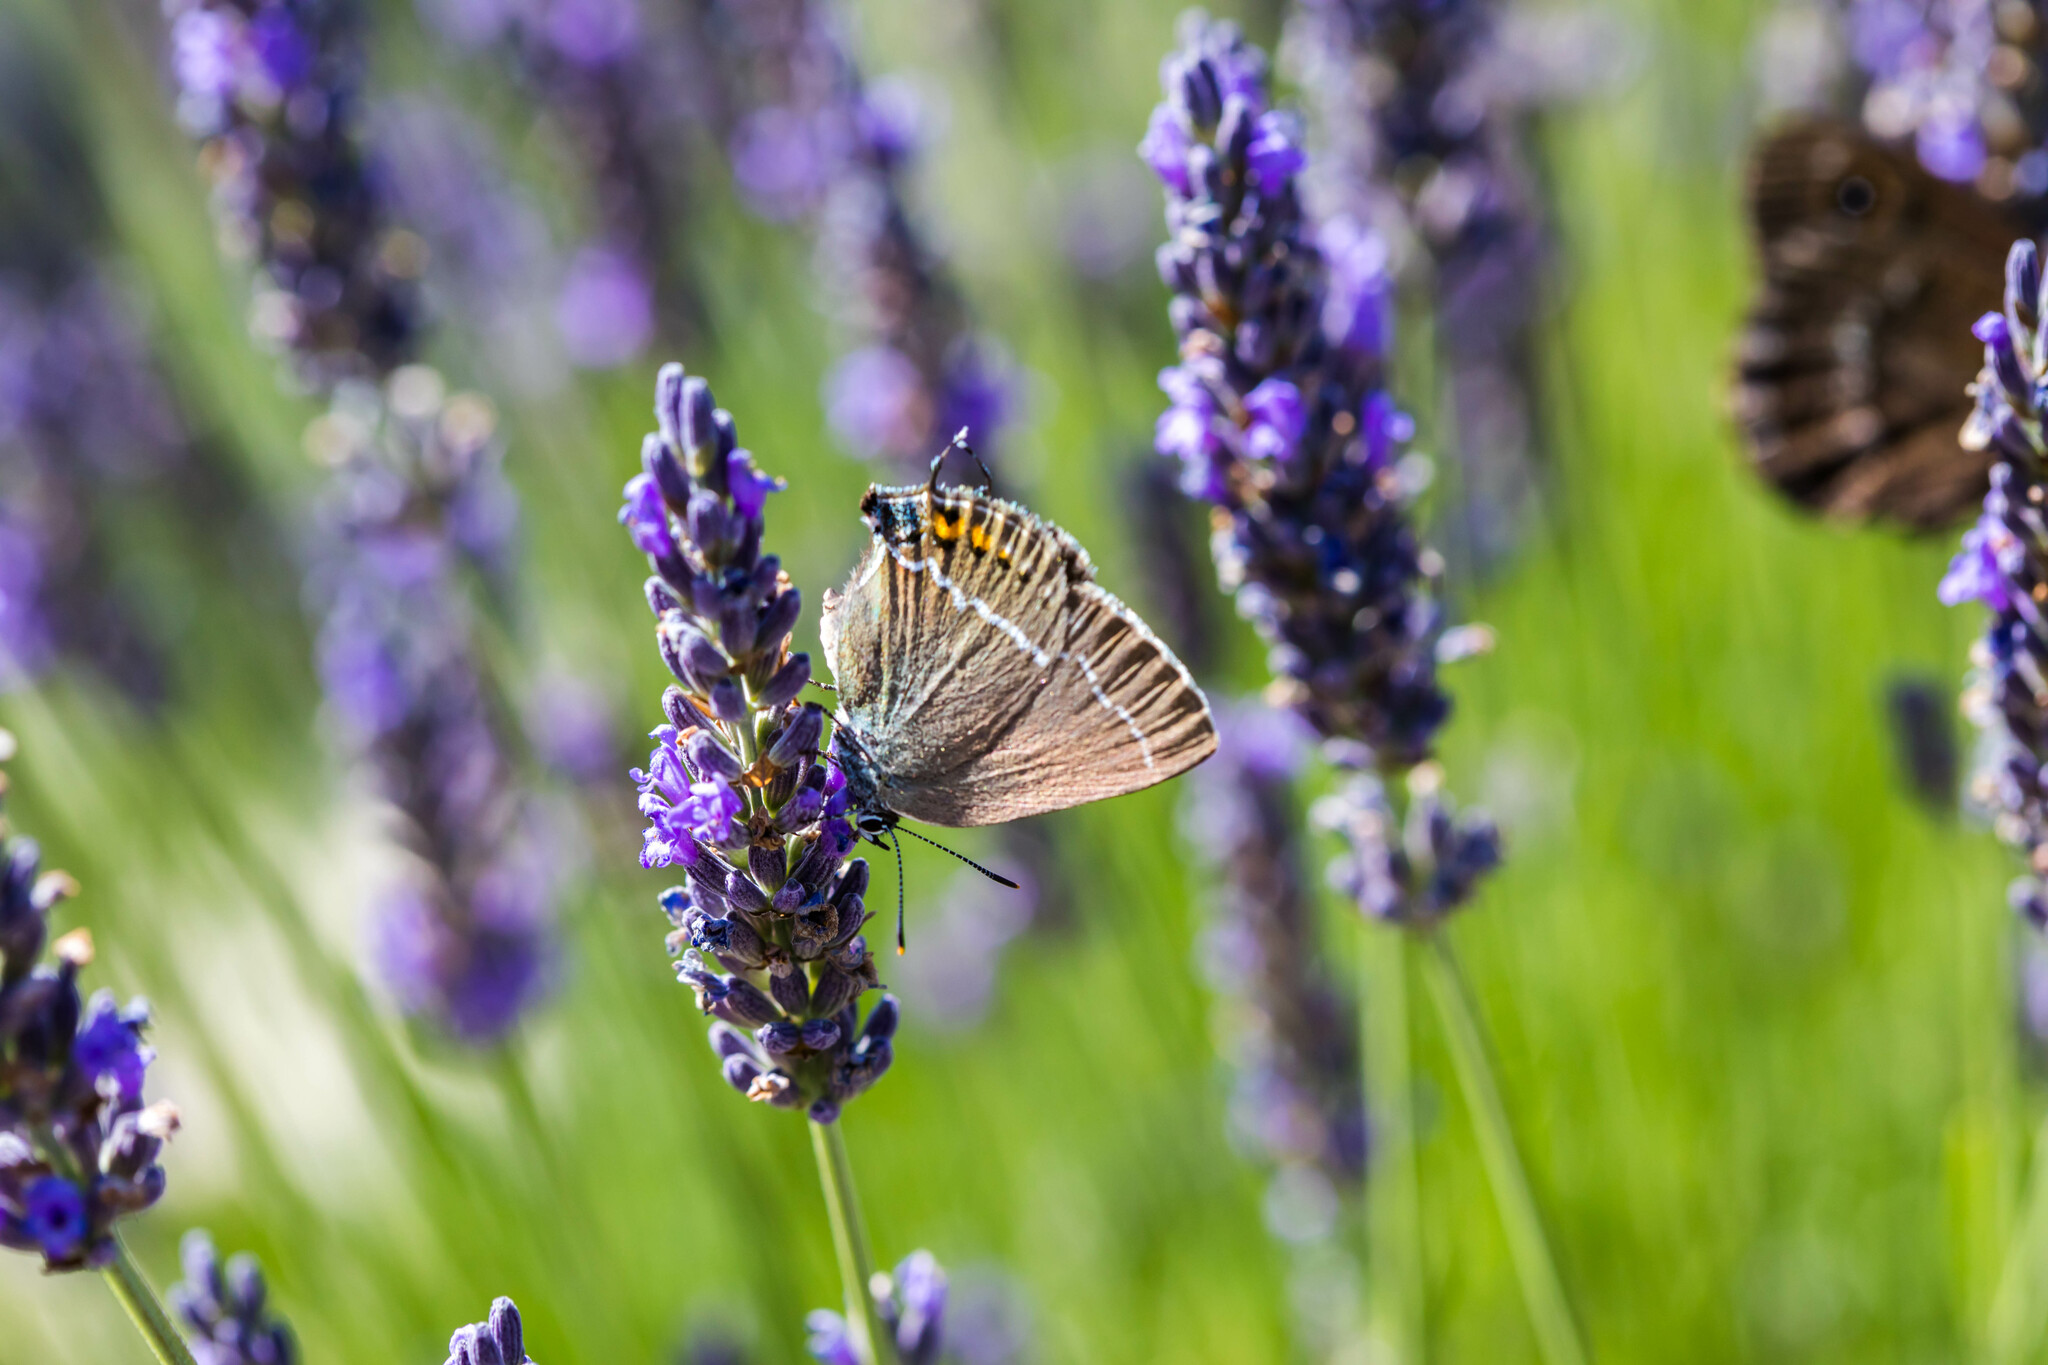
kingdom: Animalia
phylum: Arthropoda
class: Insecta
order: Lepidoptera
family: Lycaenidae
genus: Tuttiola
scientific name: Tuttiola spini
